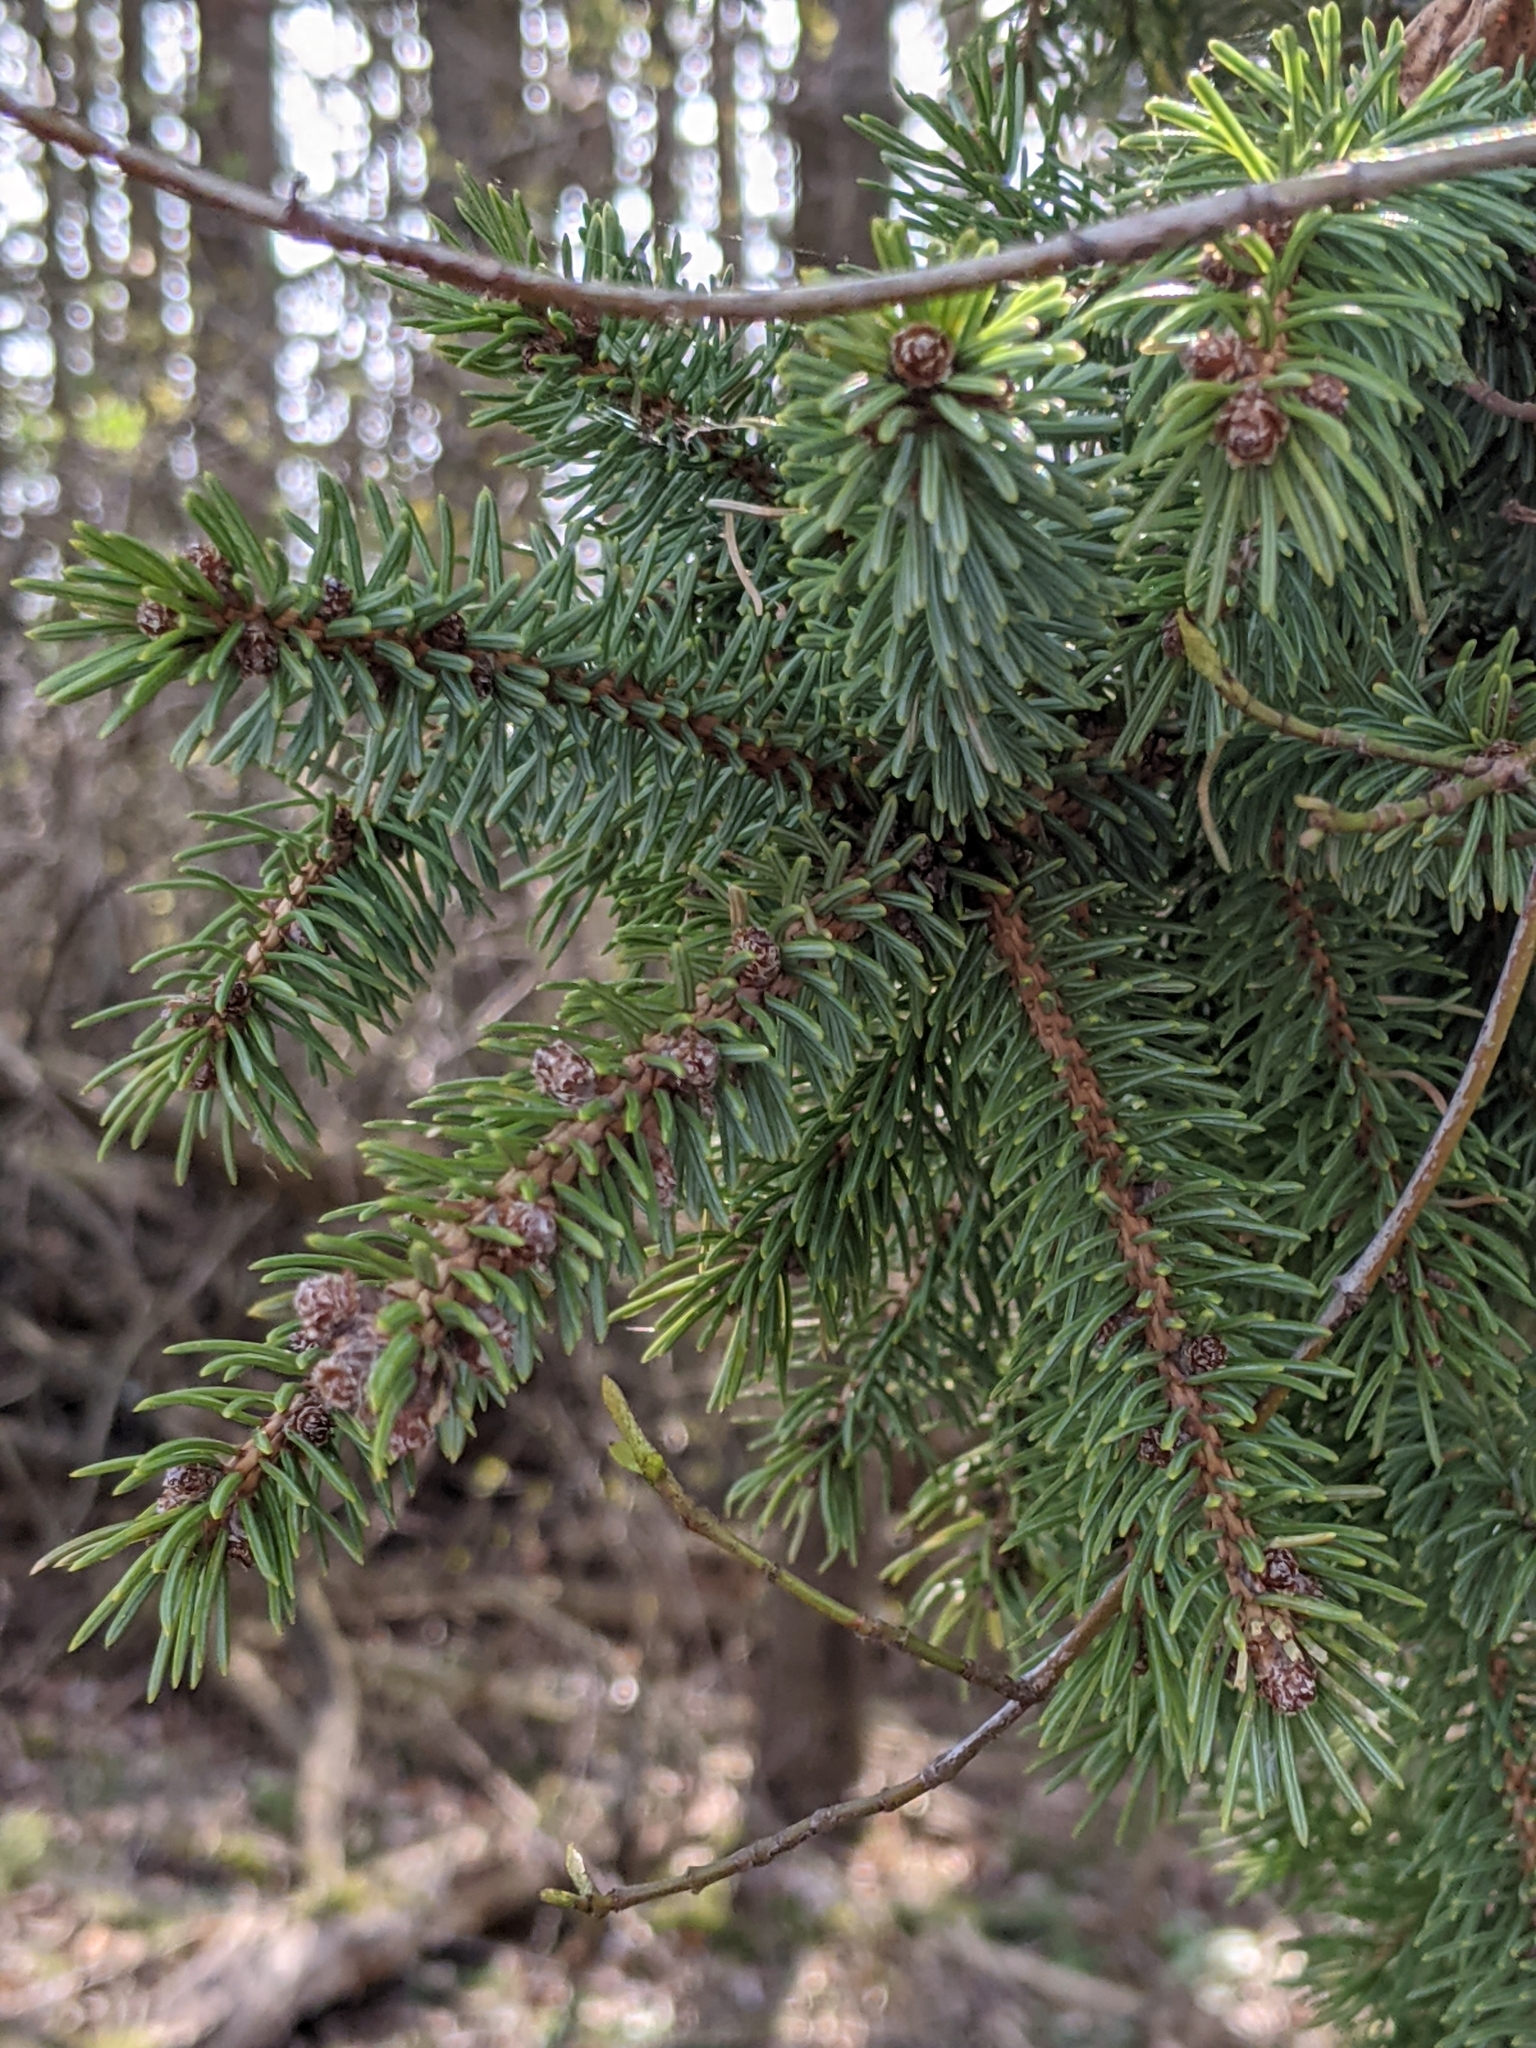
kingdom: Plantae
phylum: Tracheophyta
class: Pinopsida
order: Pinales
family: Pinaceae
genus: Picea
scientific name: Picea glauca
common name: White spruce
